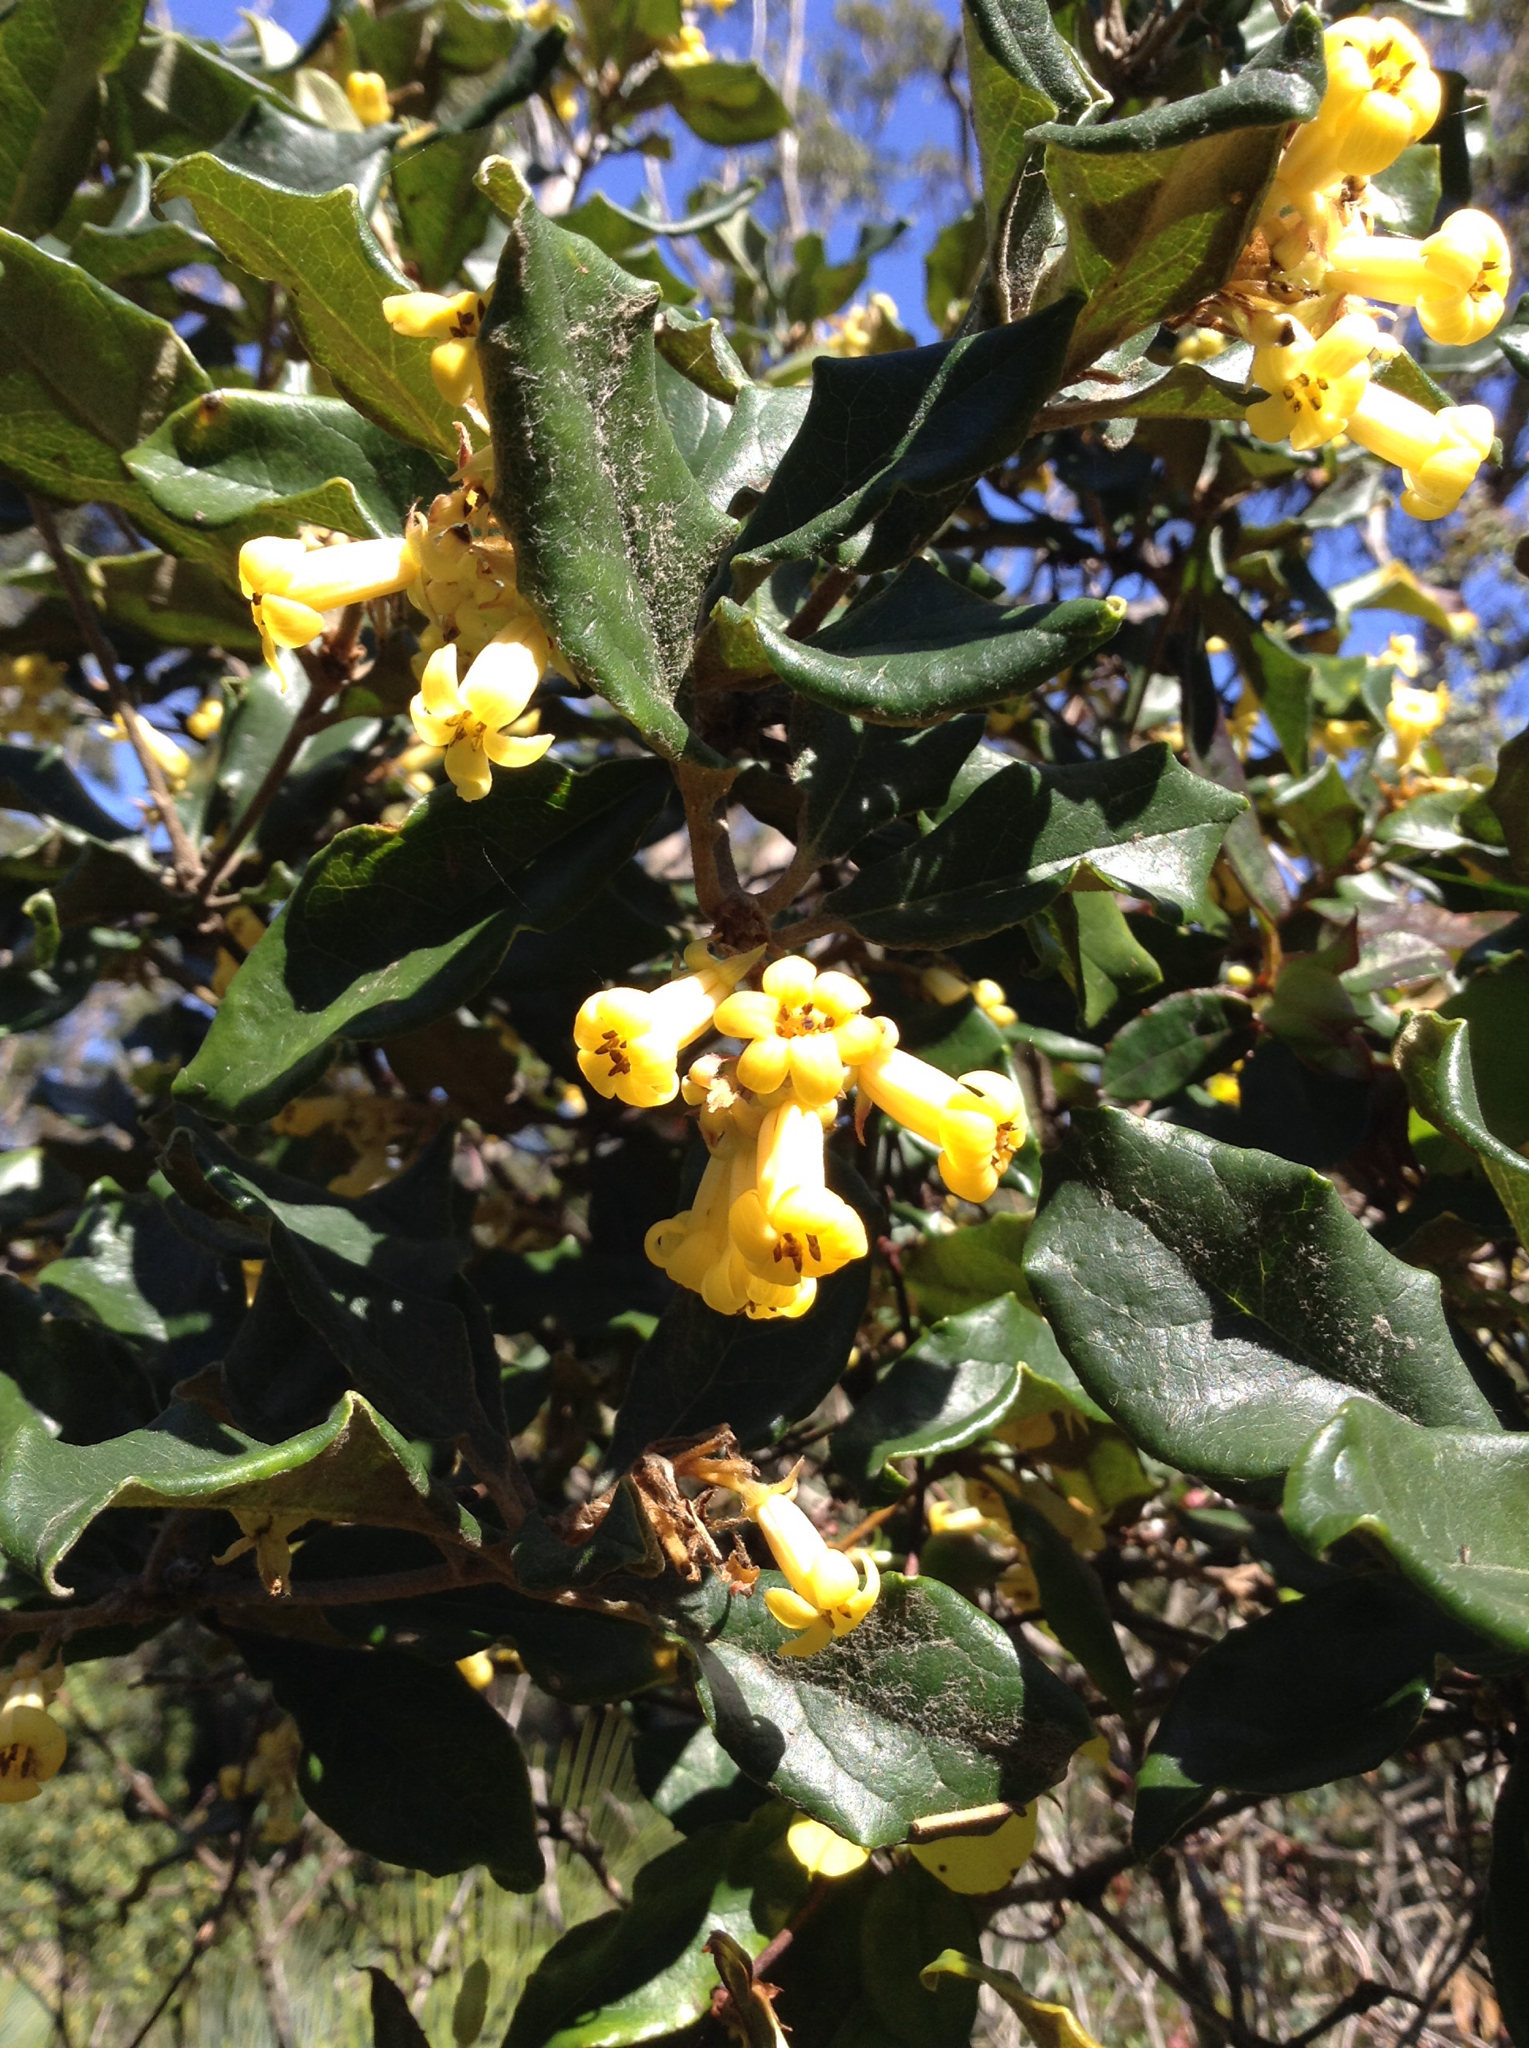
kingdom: Plantae
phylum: Tracheophyta
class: Magnoliopsida
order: Apiales
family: Pittosporaceae
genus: Pittosporum
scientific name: Pittosporum revolutum
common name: Brisbane-laurel
